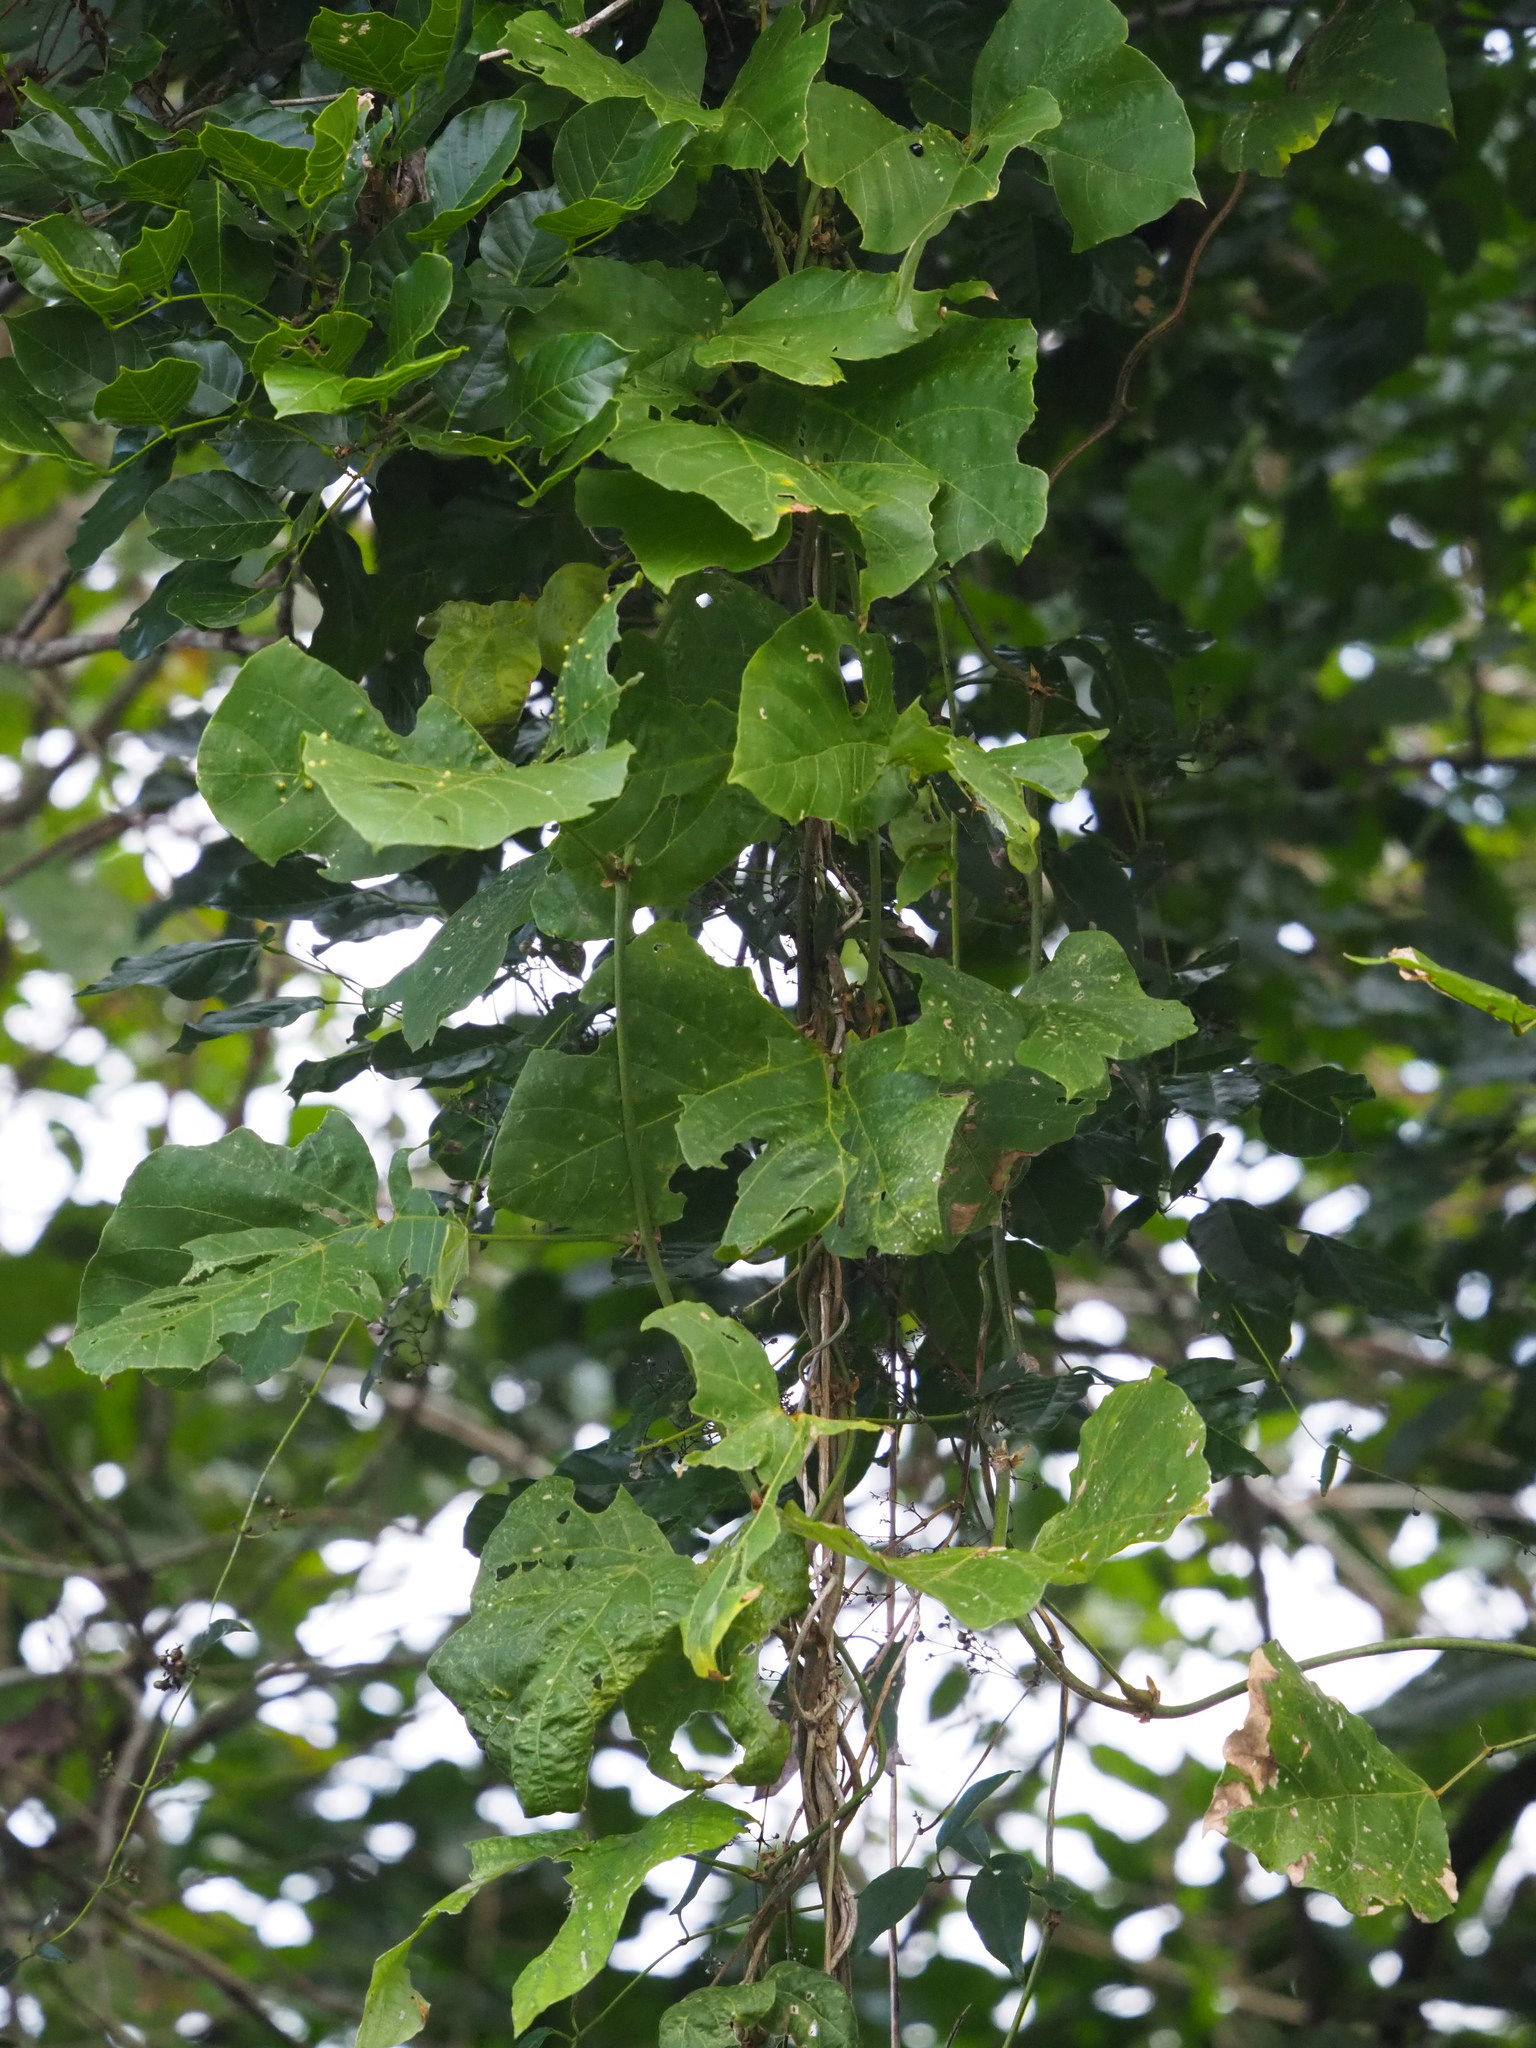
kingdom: Plantae
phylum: Tracheophyta
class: Magnoliopsida
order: Fabales
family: Fabaceae
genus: Pueraria
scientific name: Pueraria montana
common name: Kudzu
